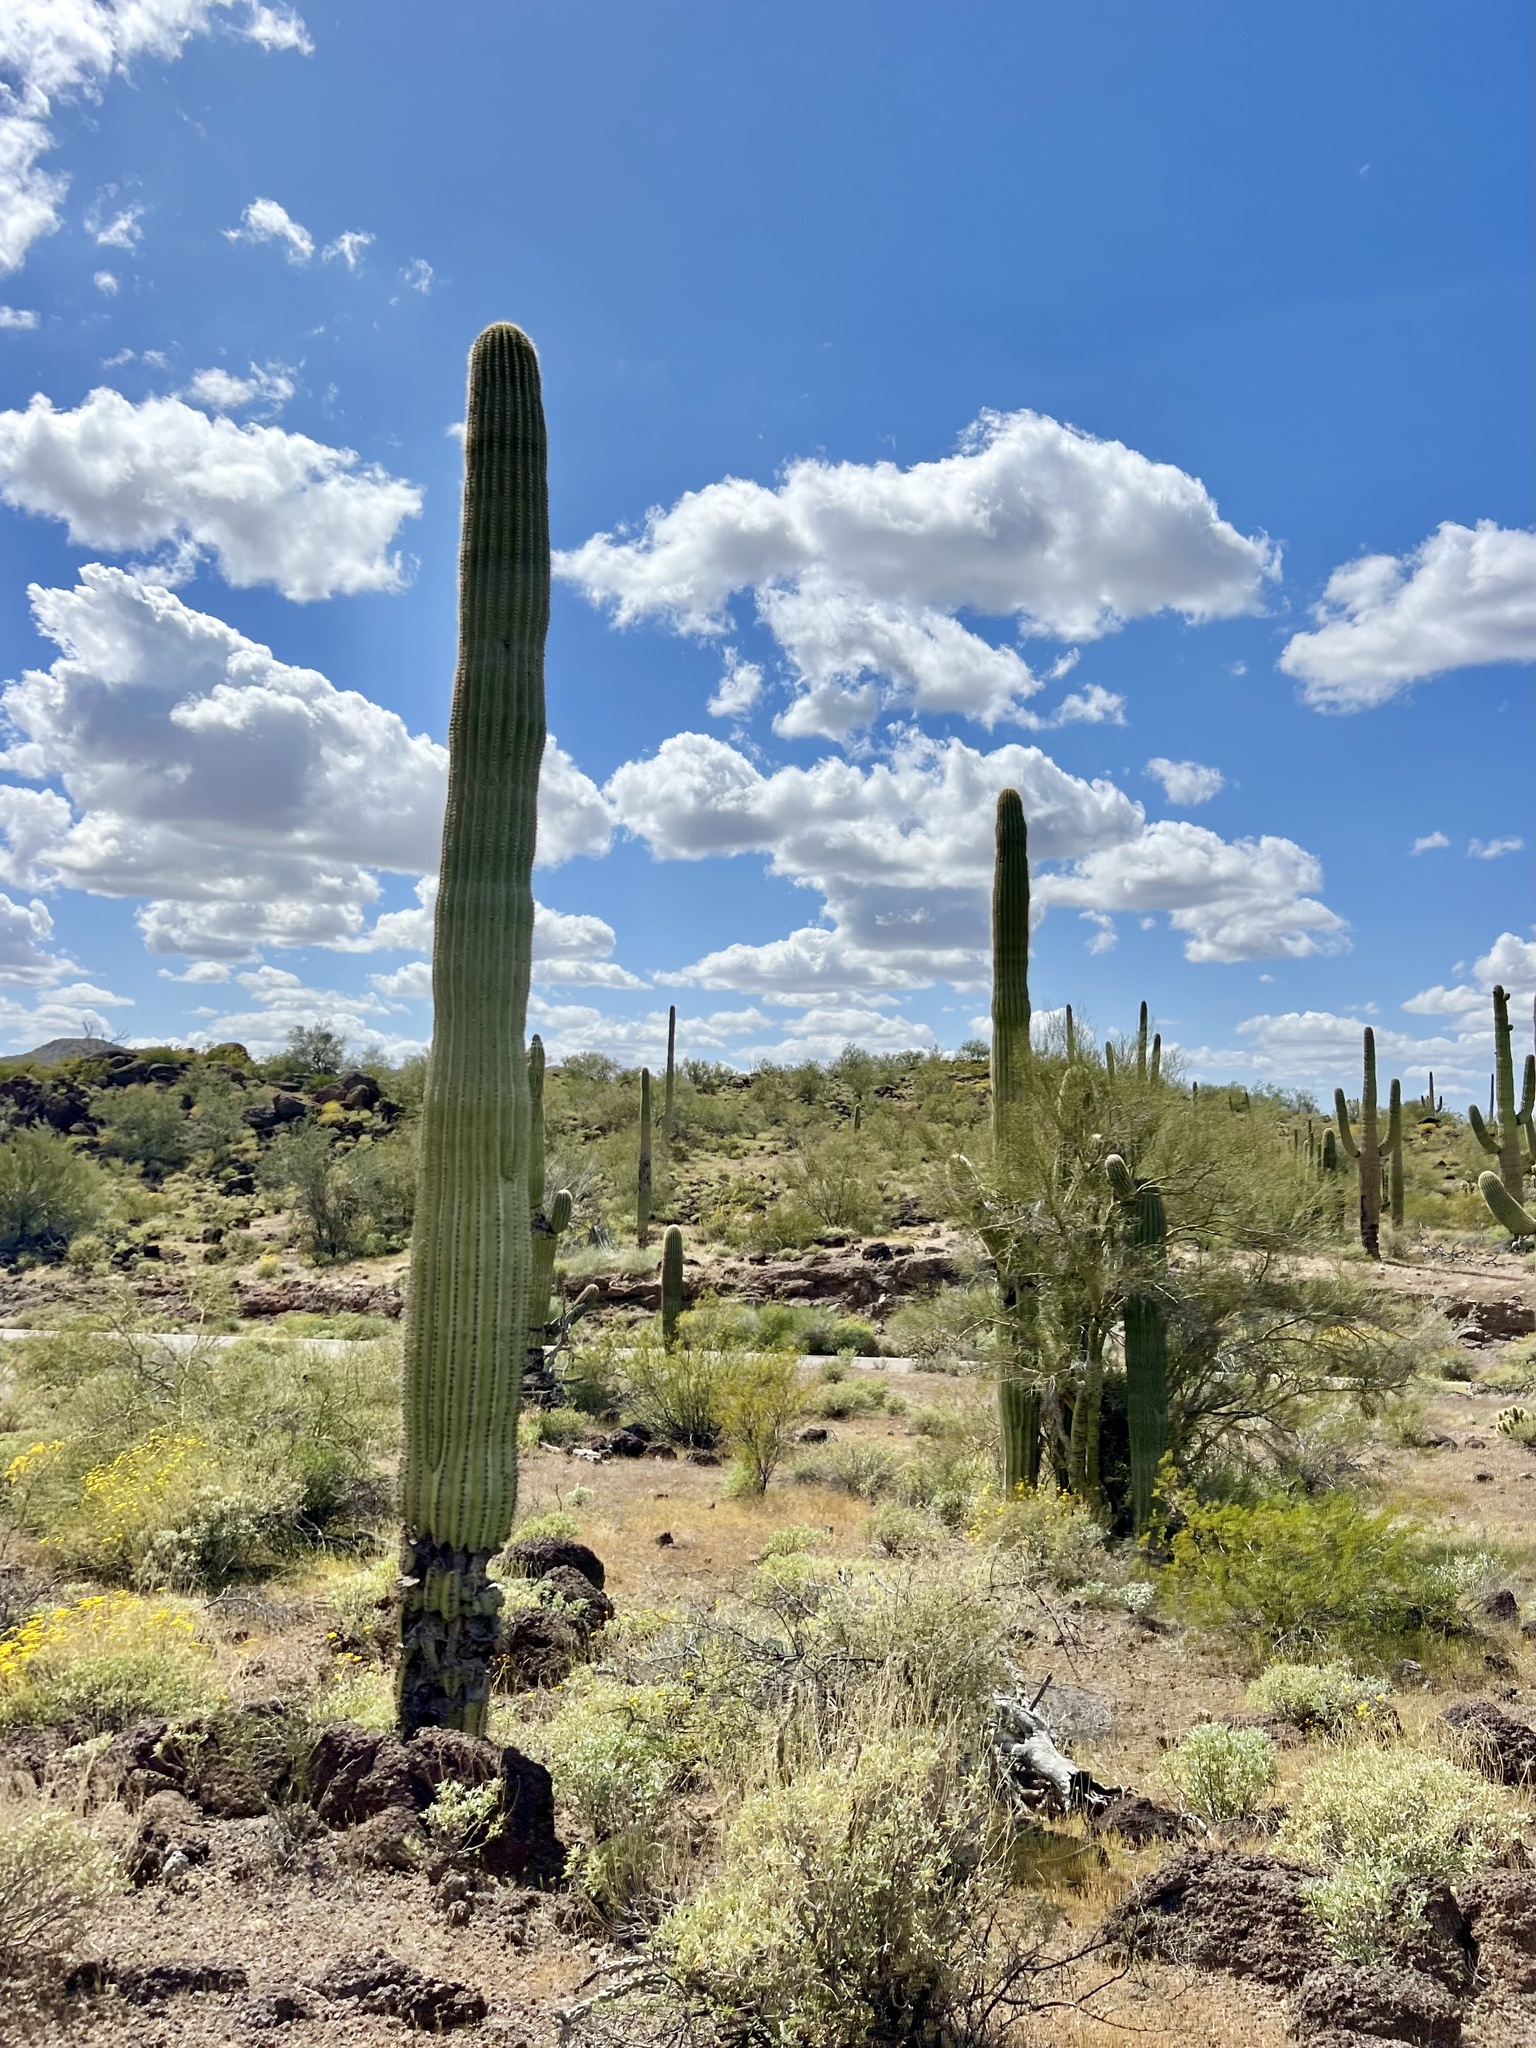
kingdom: Plantae
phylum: Tracheophyta
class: Magnoliopsida
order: Caryophyllales
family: Cactaceae
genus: Carnegiea
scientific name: Carnegiea gigantea
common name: Saguaro
